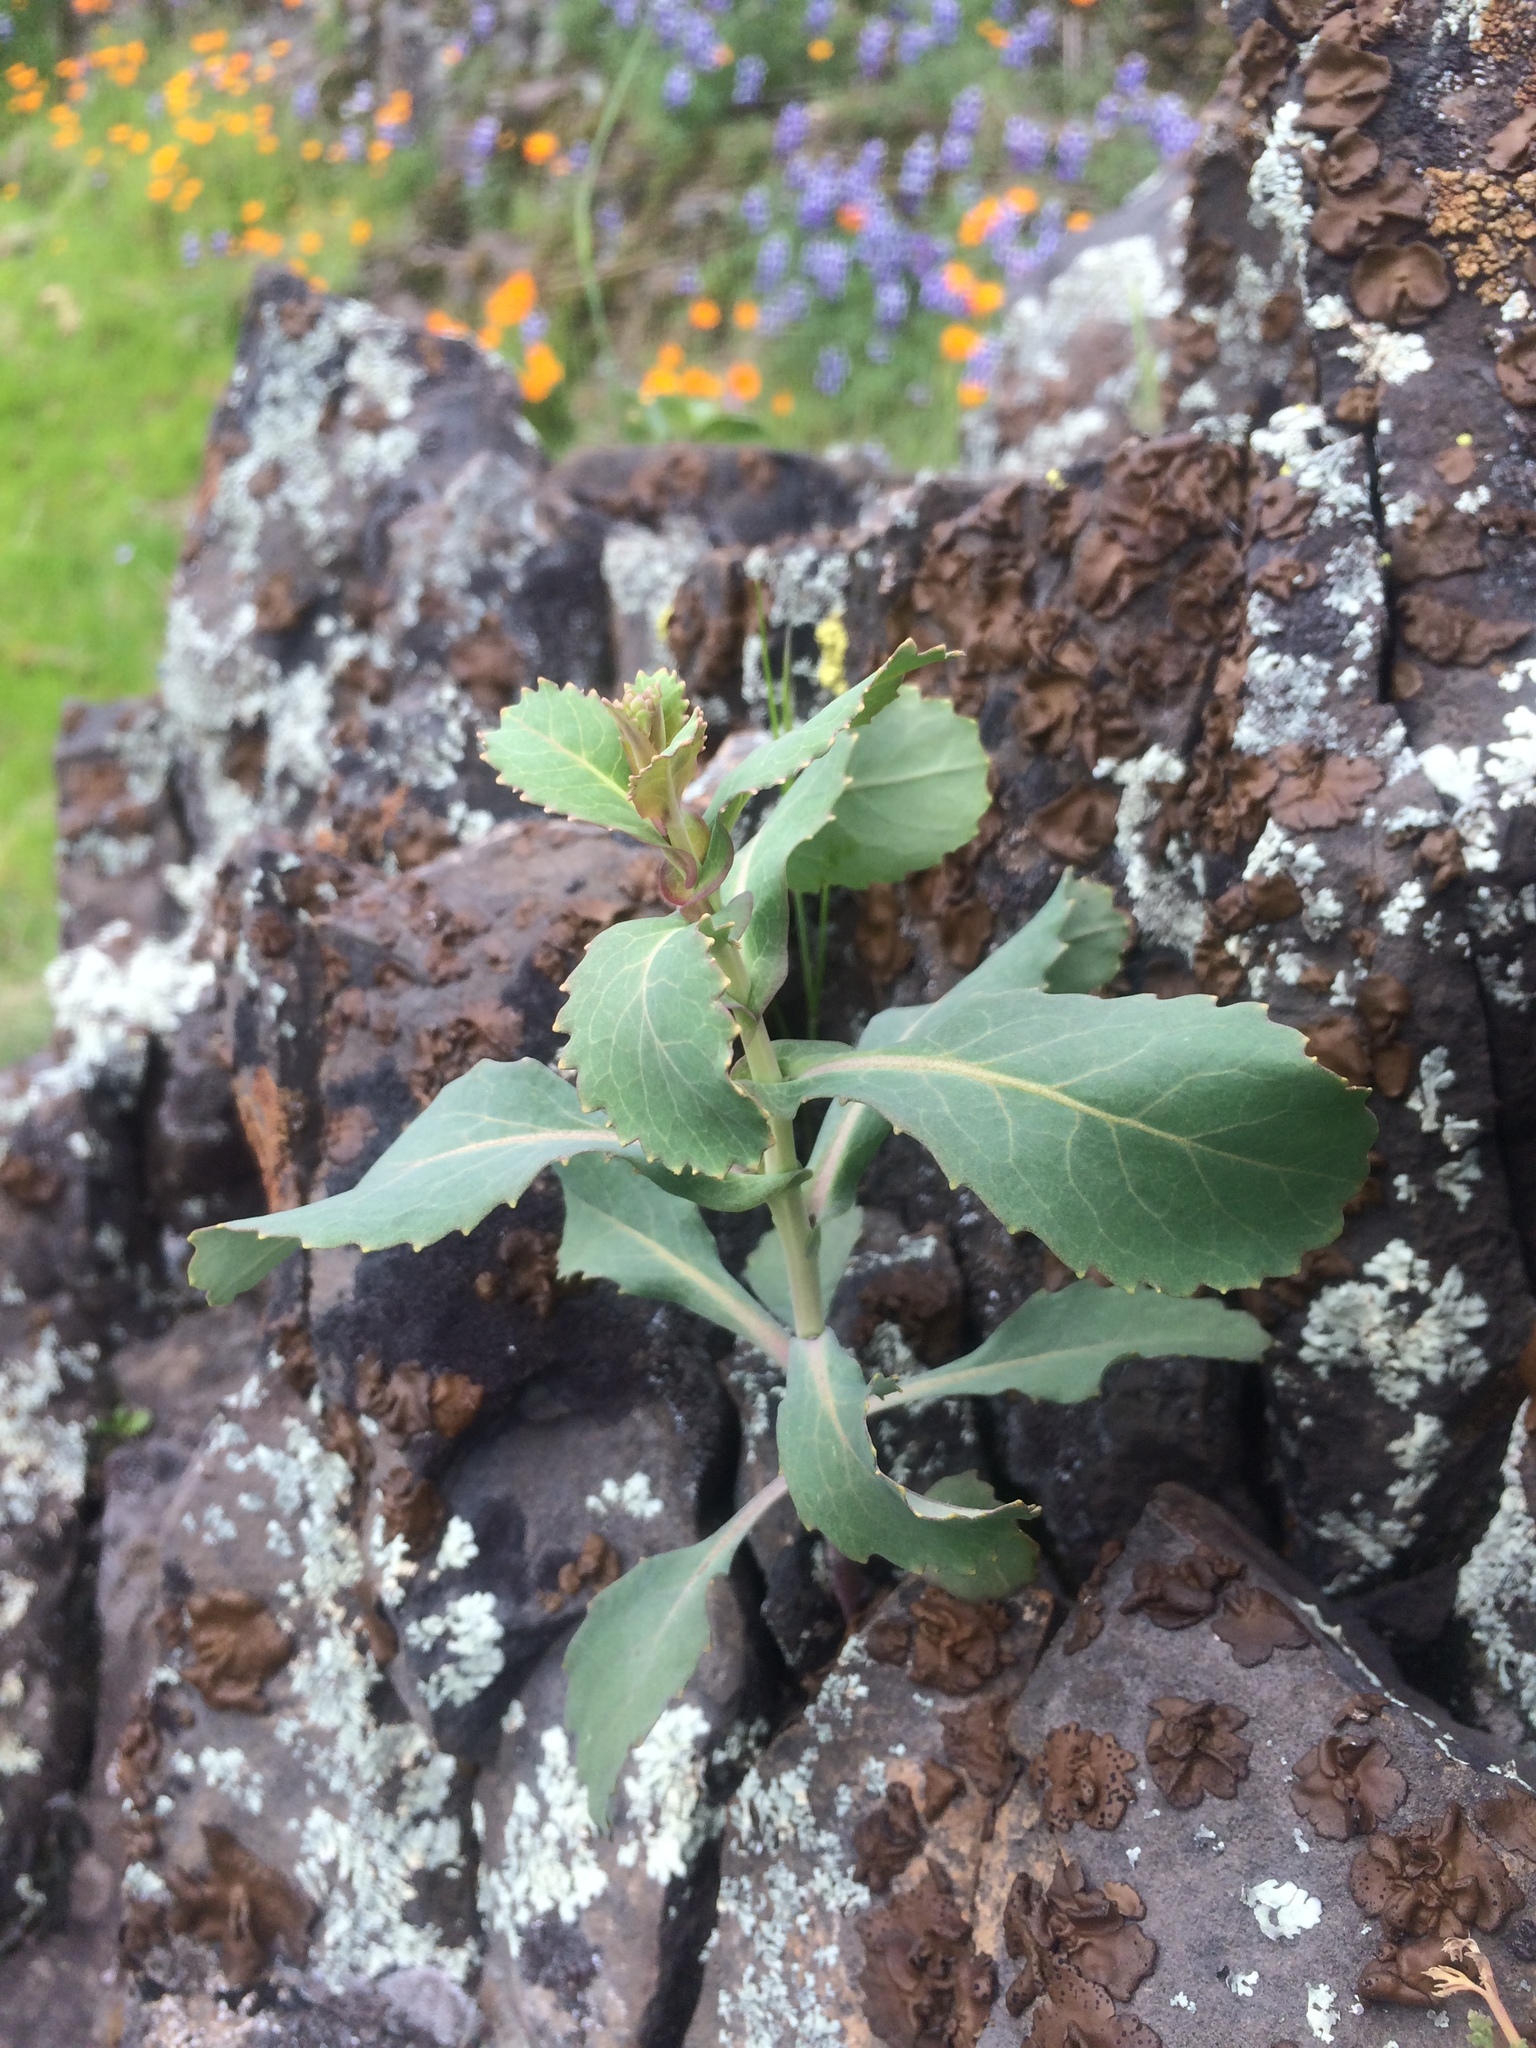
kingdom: Plantae
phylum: Tracheophyta
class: Magnoliopsida
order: Brassicales
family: Brassicaceae
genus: Streptanthus
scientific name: Streptanthus tortuosus
